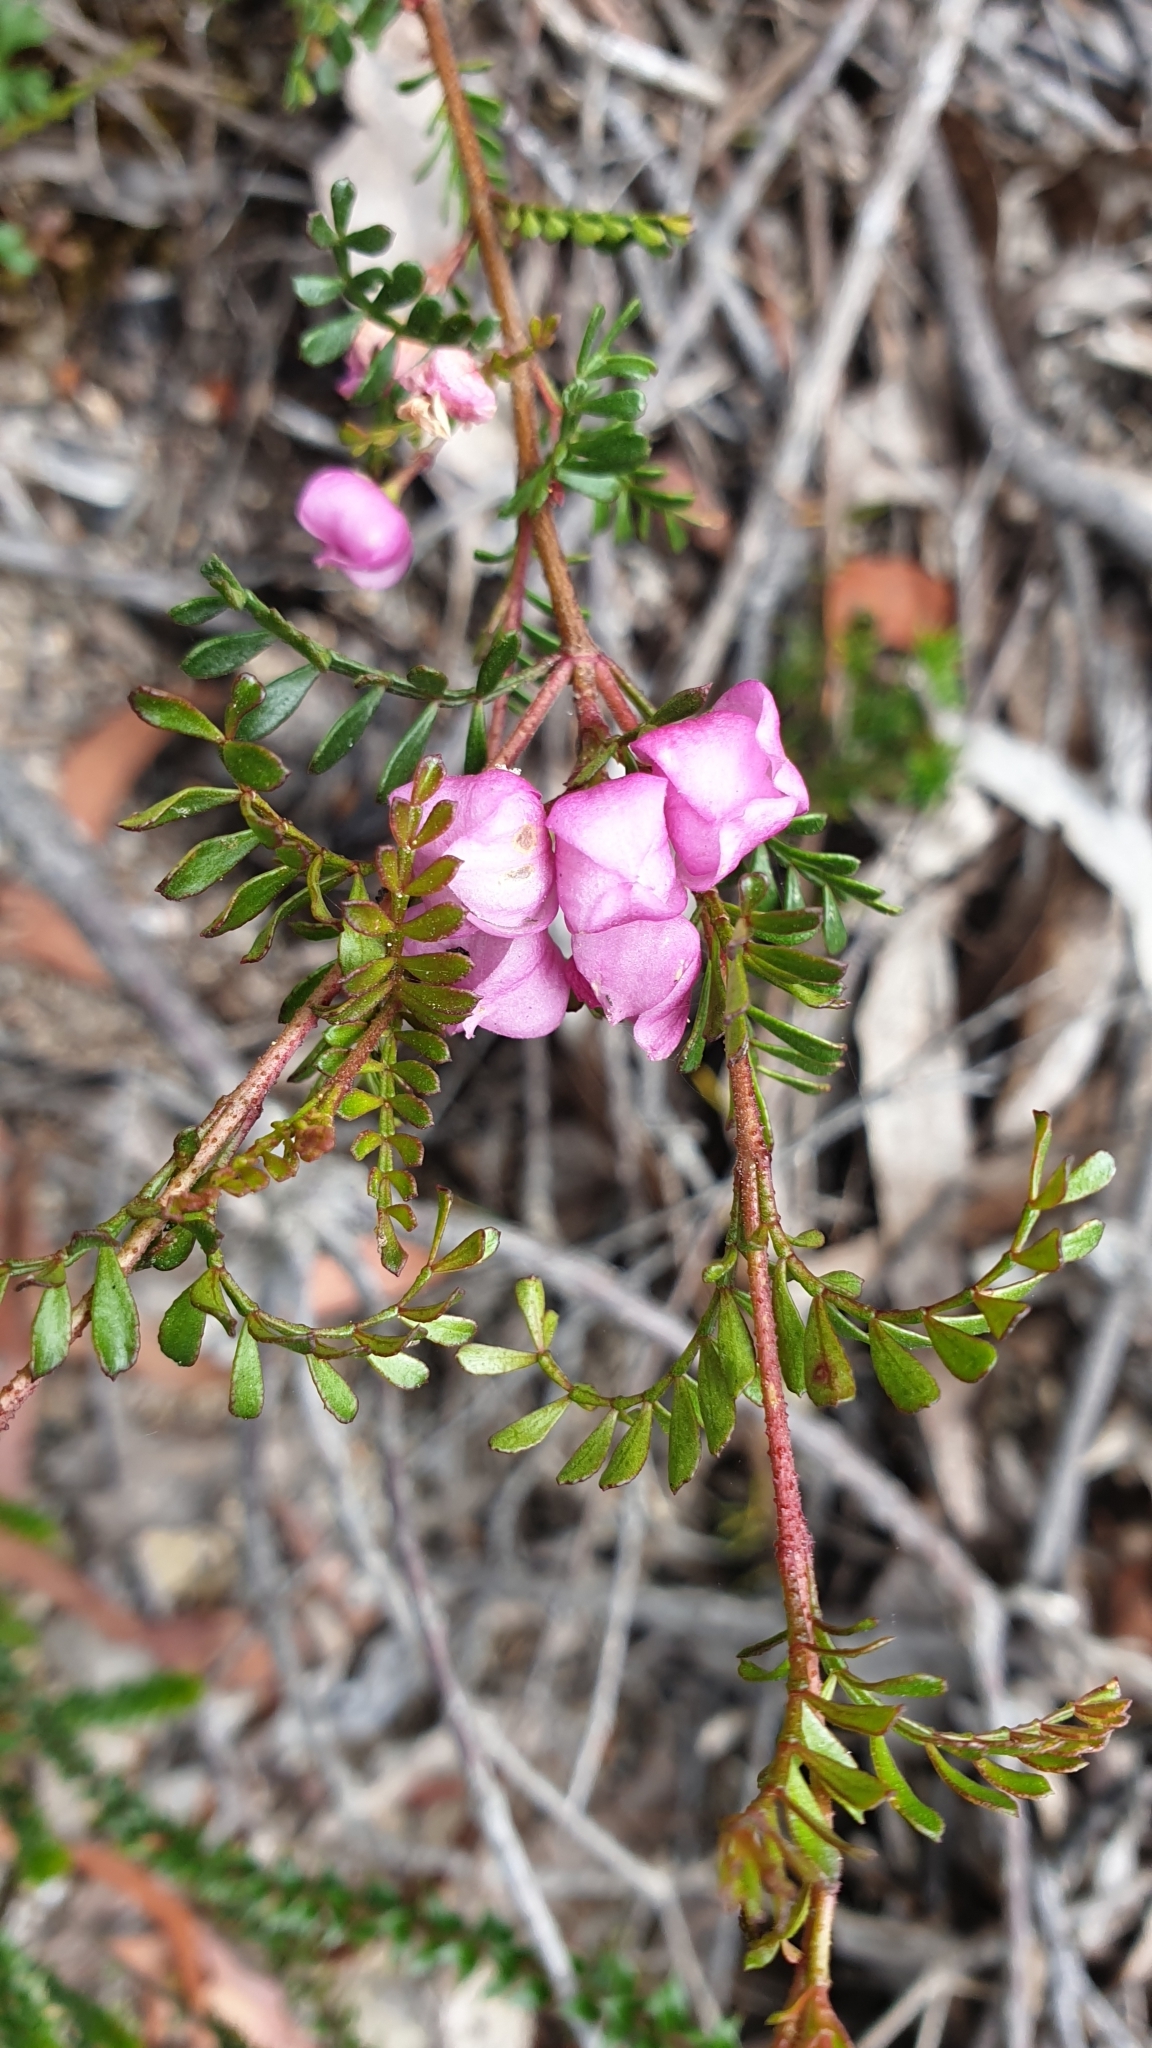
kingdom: Plantae
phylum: Tracheophyta
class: Magnoliopsida
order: Sapindales
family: Rutaceae
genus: Boronia
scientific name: Boronia microphylla
